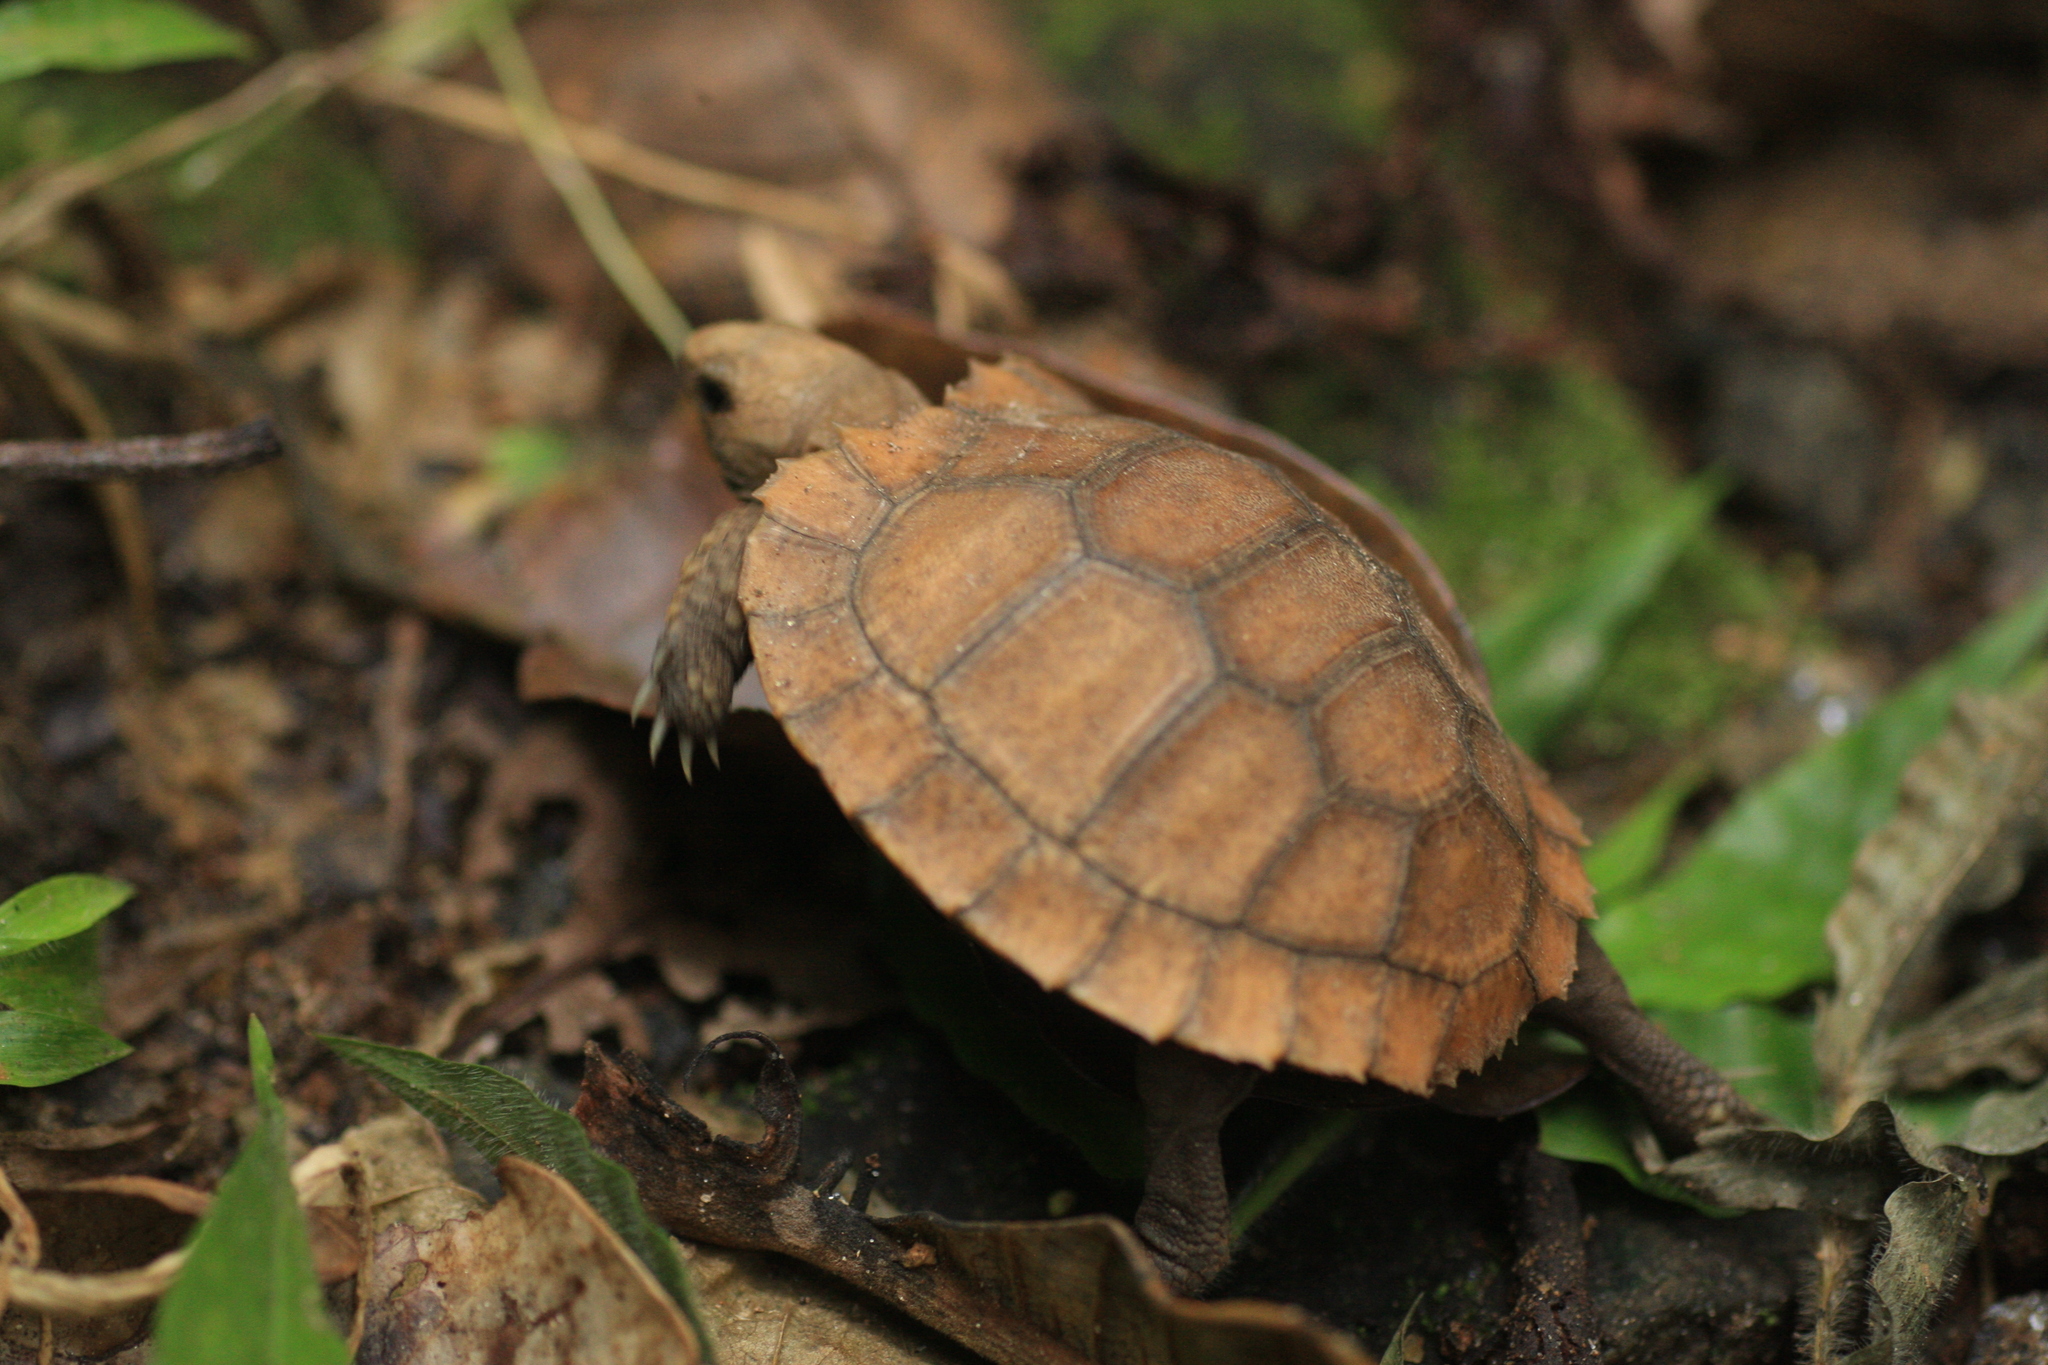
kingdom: Animalia
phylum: Chordata
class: Testudines
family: Testudinidae
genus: Indotestudo
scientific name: Indotestudo travancorica
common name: Travancore tortoise
